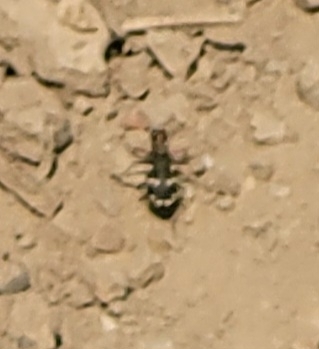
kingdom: Animalia
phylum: Arthropoda
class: Insecta
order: Coleoptera
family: Carabidae
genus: Cicindela
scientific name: Cicindela hybrida
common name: Northern dune tiger beetle
